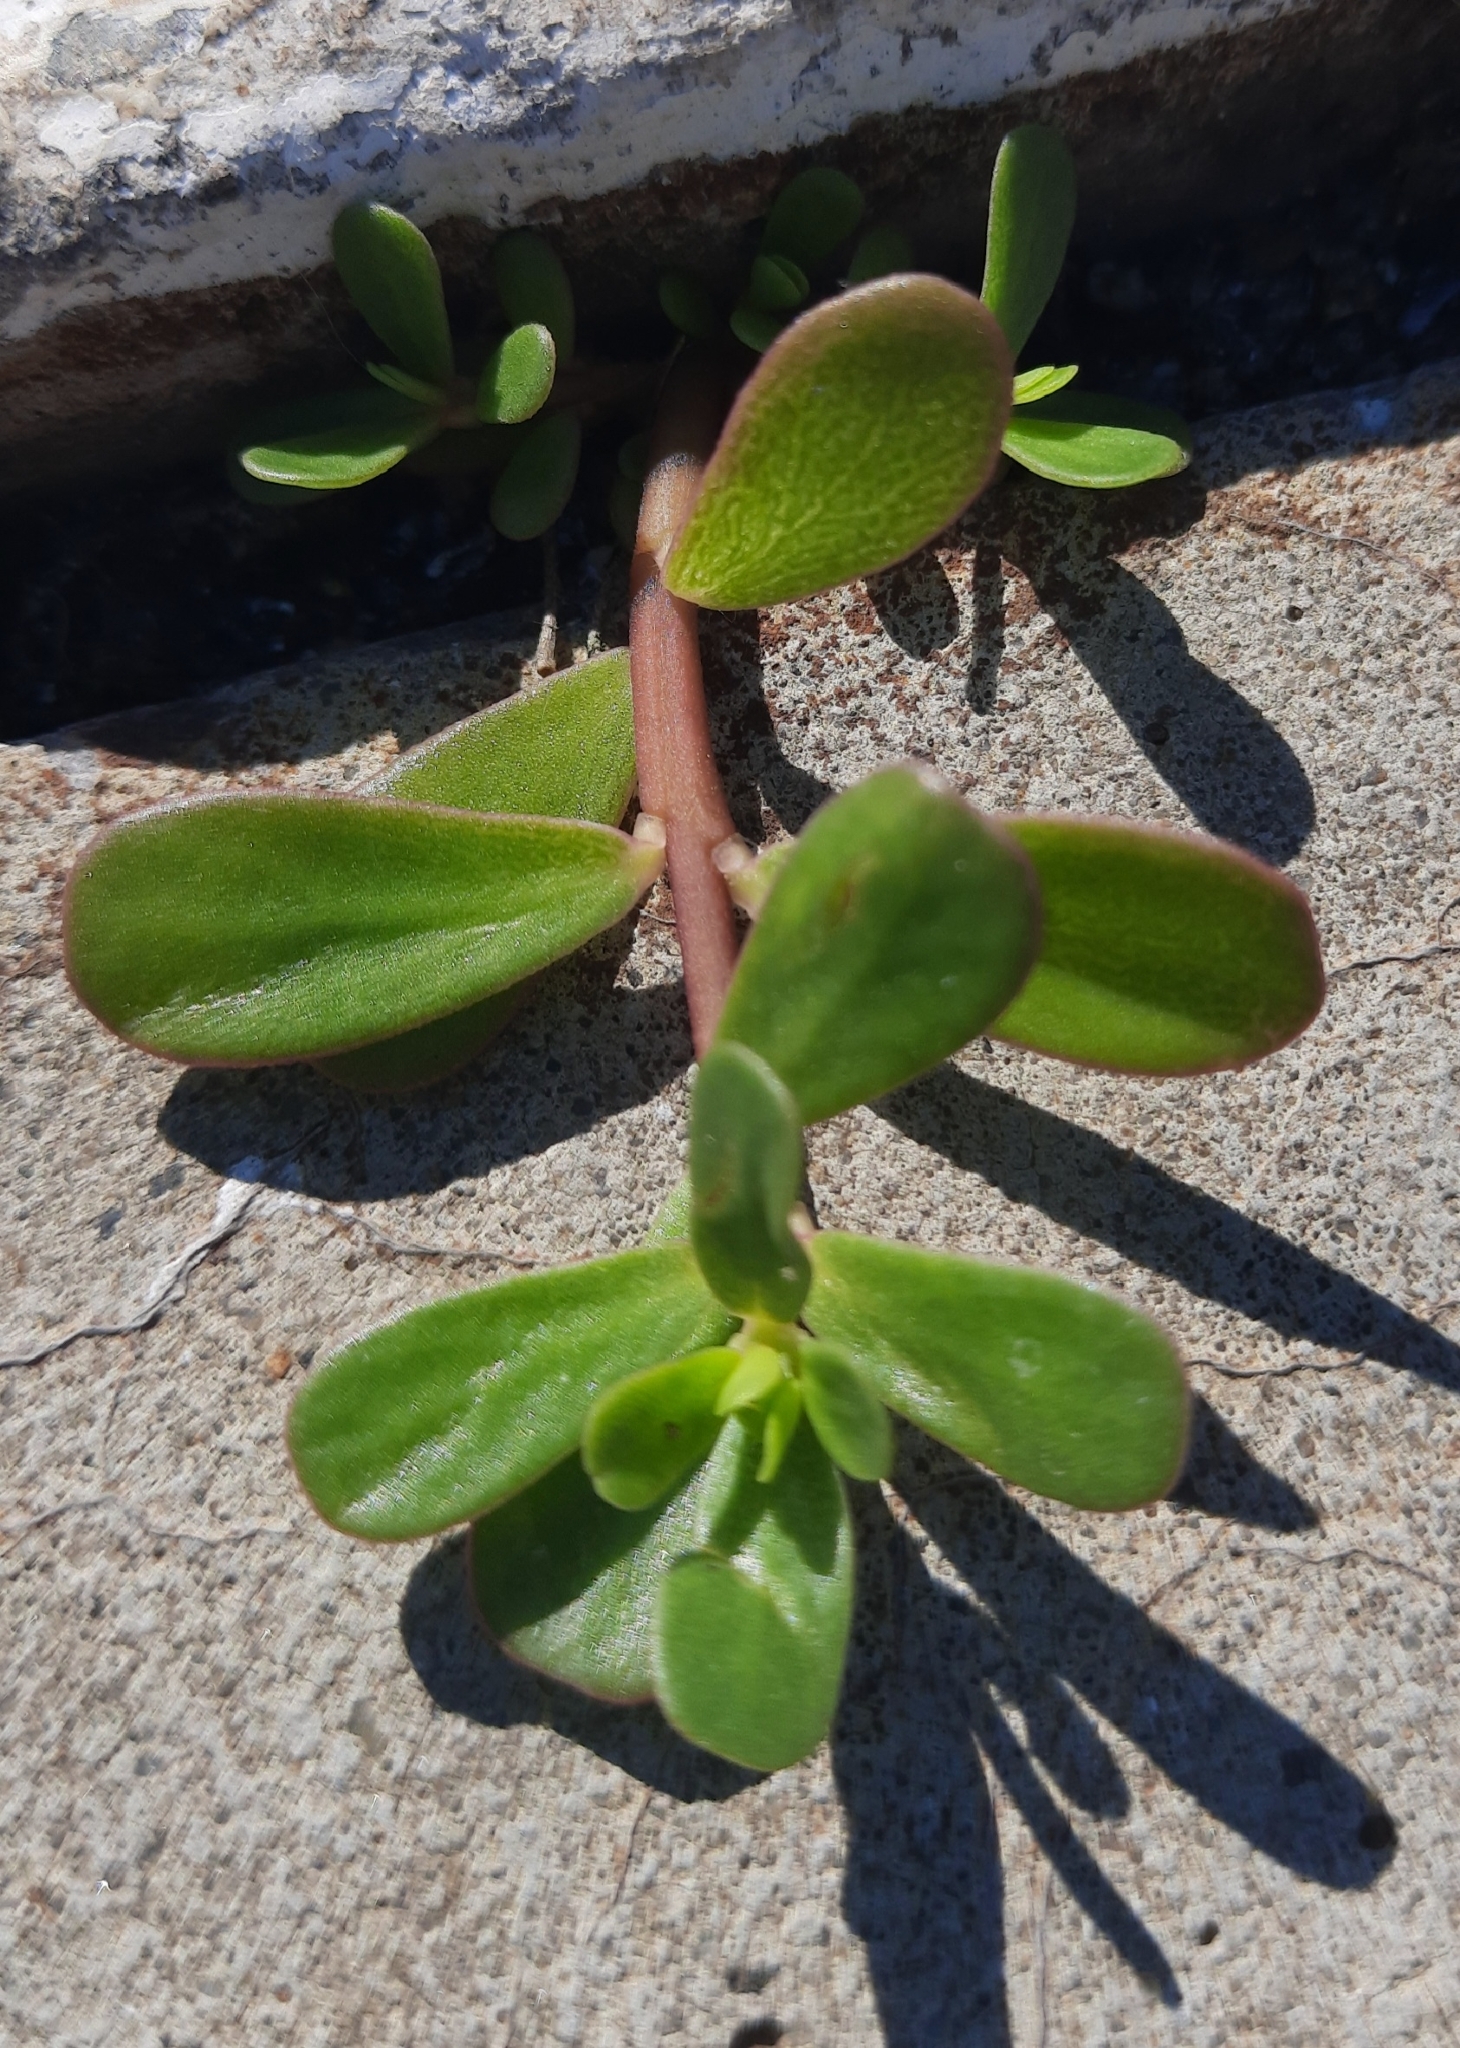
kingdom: Plantae
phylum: Tracheophyta
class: Magnoliopsida
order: Caryophyllales
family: Portulacaceae
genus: Portulaca
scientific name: Portulaca oleracea
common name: Common purslane
